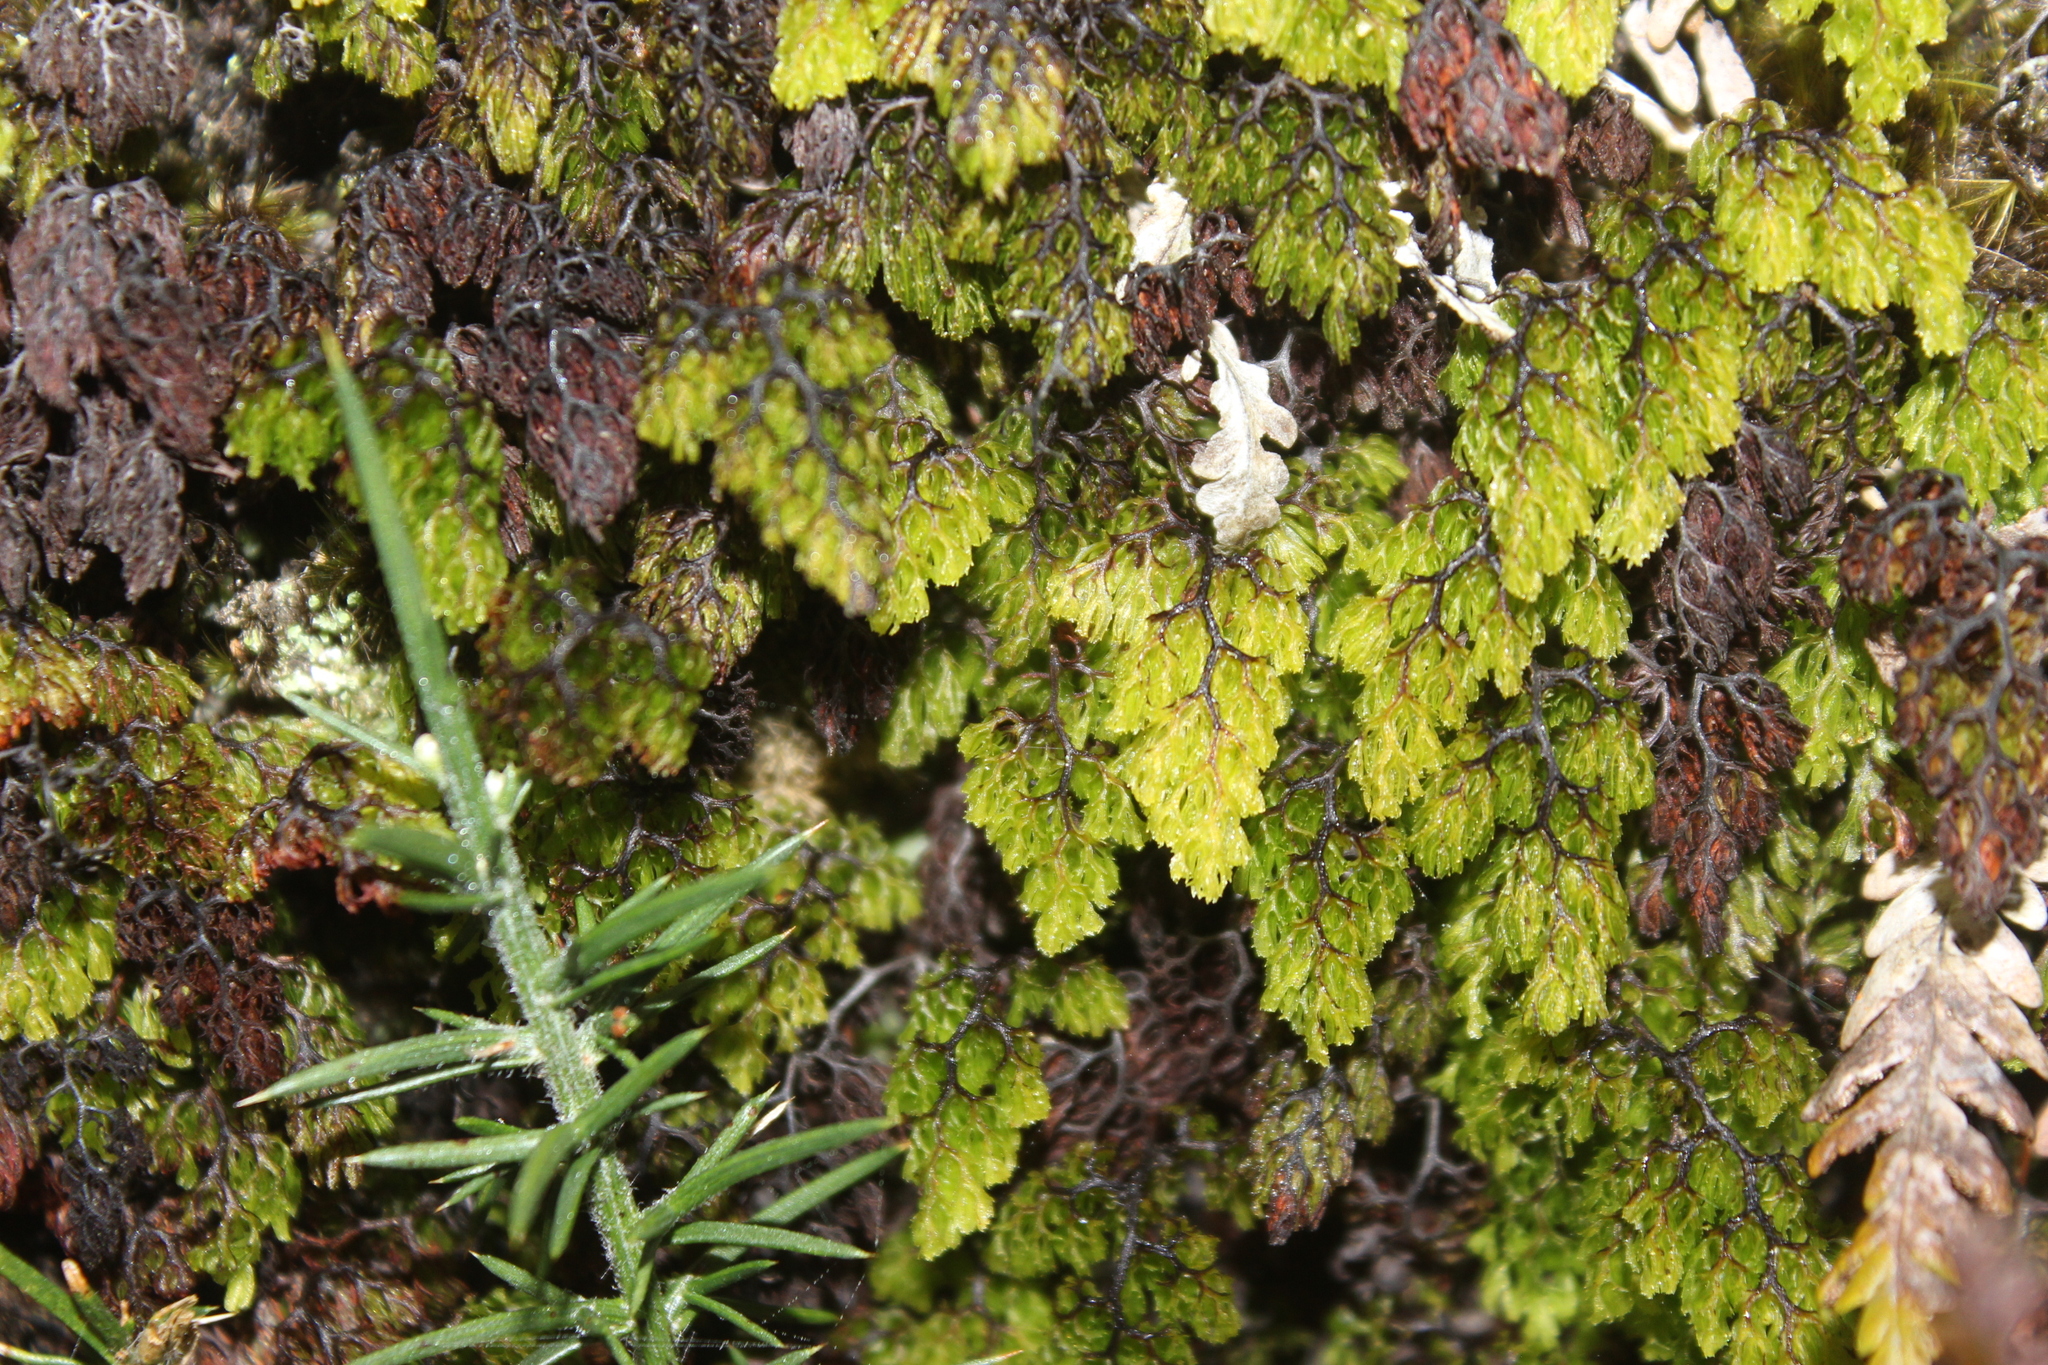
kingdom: Plantae
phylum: Tracheophyta
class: Magnoliopsida
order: Fabales
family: Fabaceae
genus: Ulex
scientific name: Ulex europaeus
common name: Common gorse
